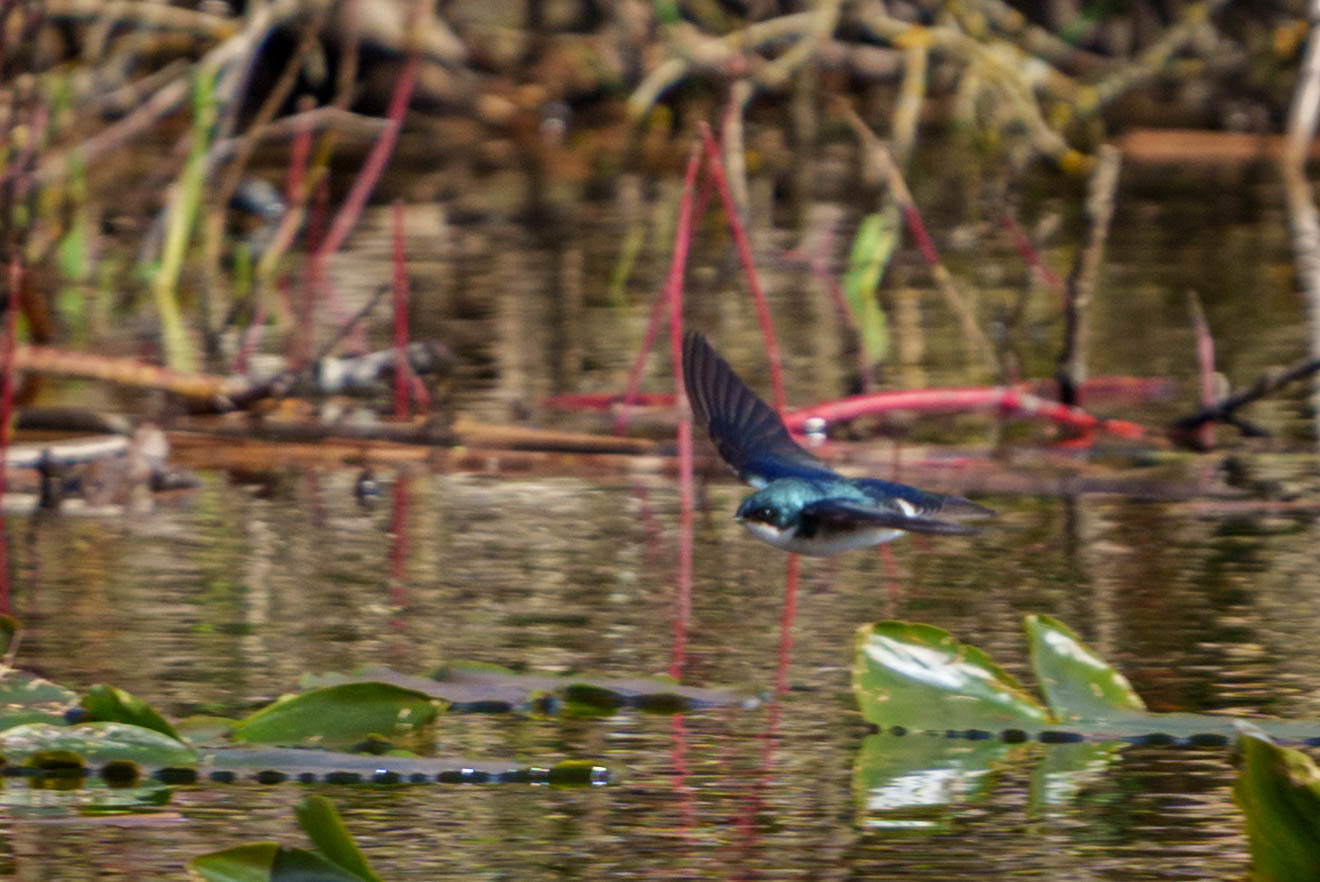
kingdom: Animalia
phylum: Chordata
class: Aves
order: Passeriformes
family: Hirundinidae
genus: Tachycineta
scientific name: Tachycineta bicolor
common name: Tree swallow
